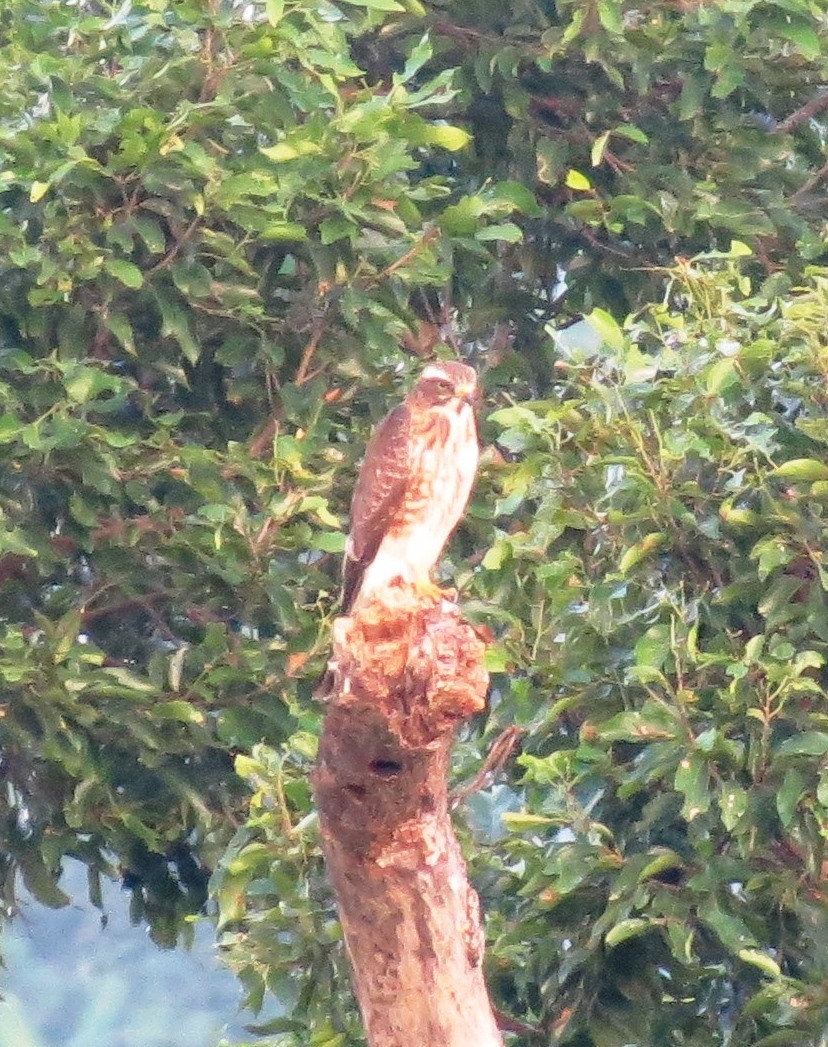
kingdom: Animalia
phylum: Chordata
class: Aves
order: Accipitriformes
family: Accipitridae
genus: Butastur
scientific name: Butastur indicus
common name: Grey-faced buzzard
